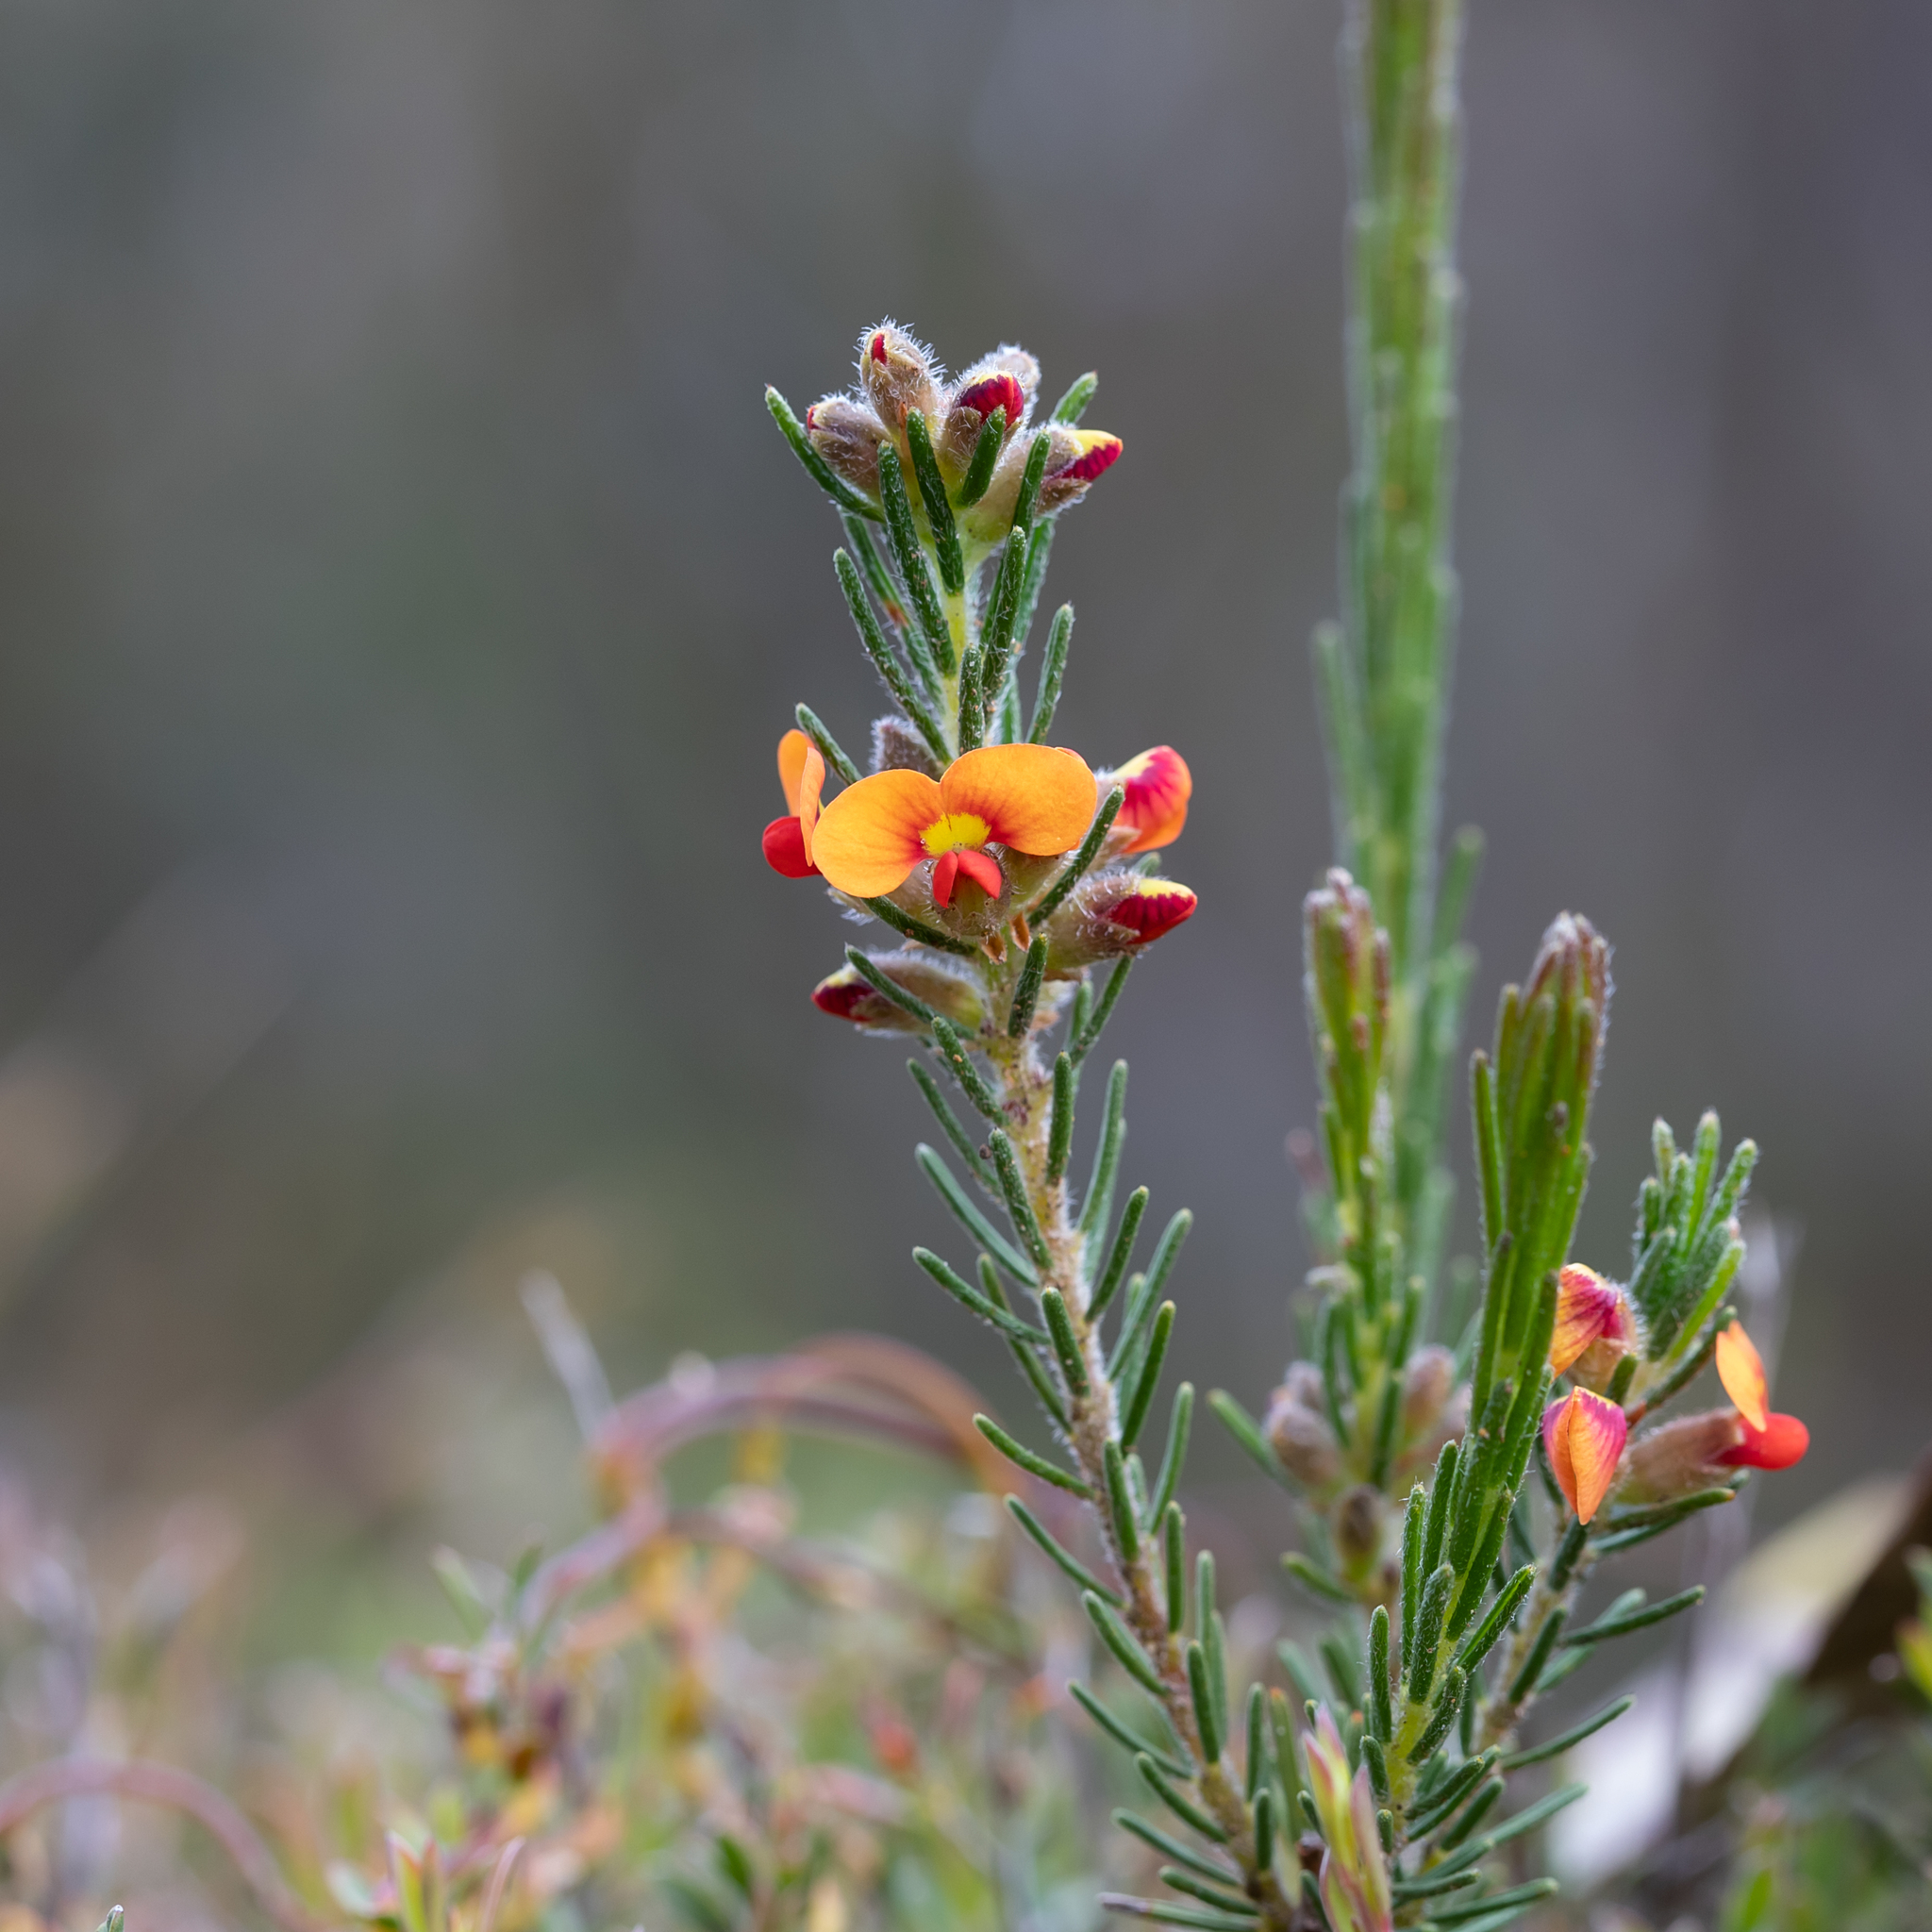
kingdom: Plantae
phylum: Tracheophyta
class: Magnoliopsida
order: Fabales
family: Fabaceae
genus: Dillwynia
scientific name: Dillwynia sericea
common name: Showy parrot-pea
